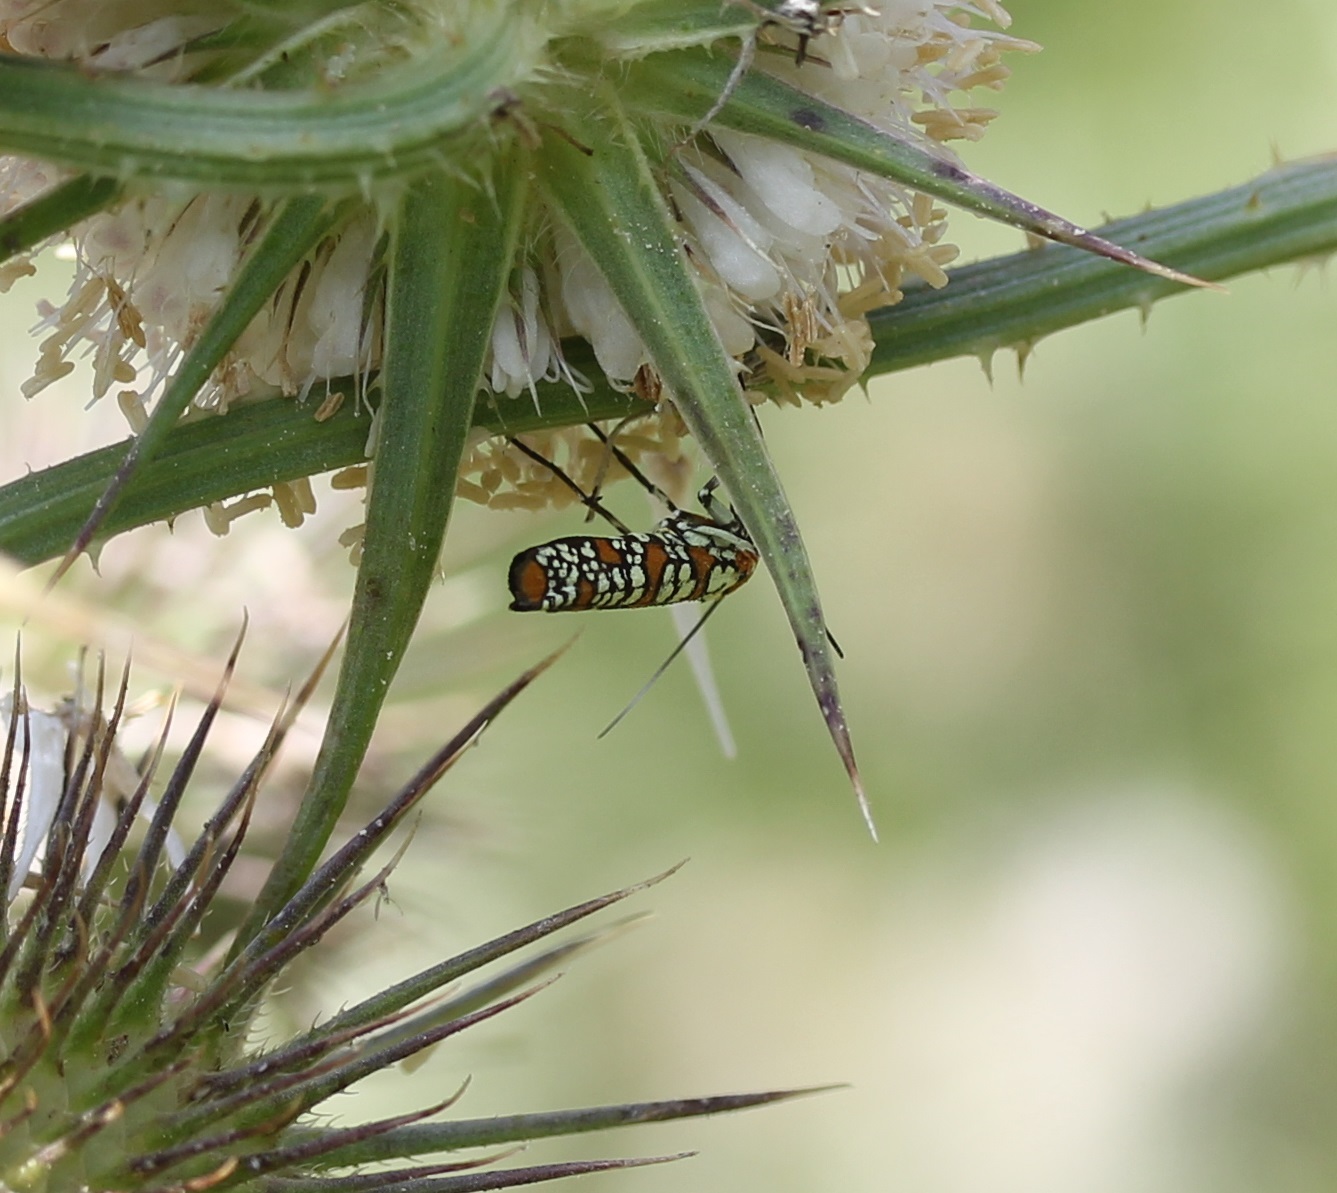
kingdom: Animalia
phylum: Arthropoda
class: Insecta
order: Lepidoptera
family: Attevidae
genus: Atteva
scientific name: Atteva punctella
